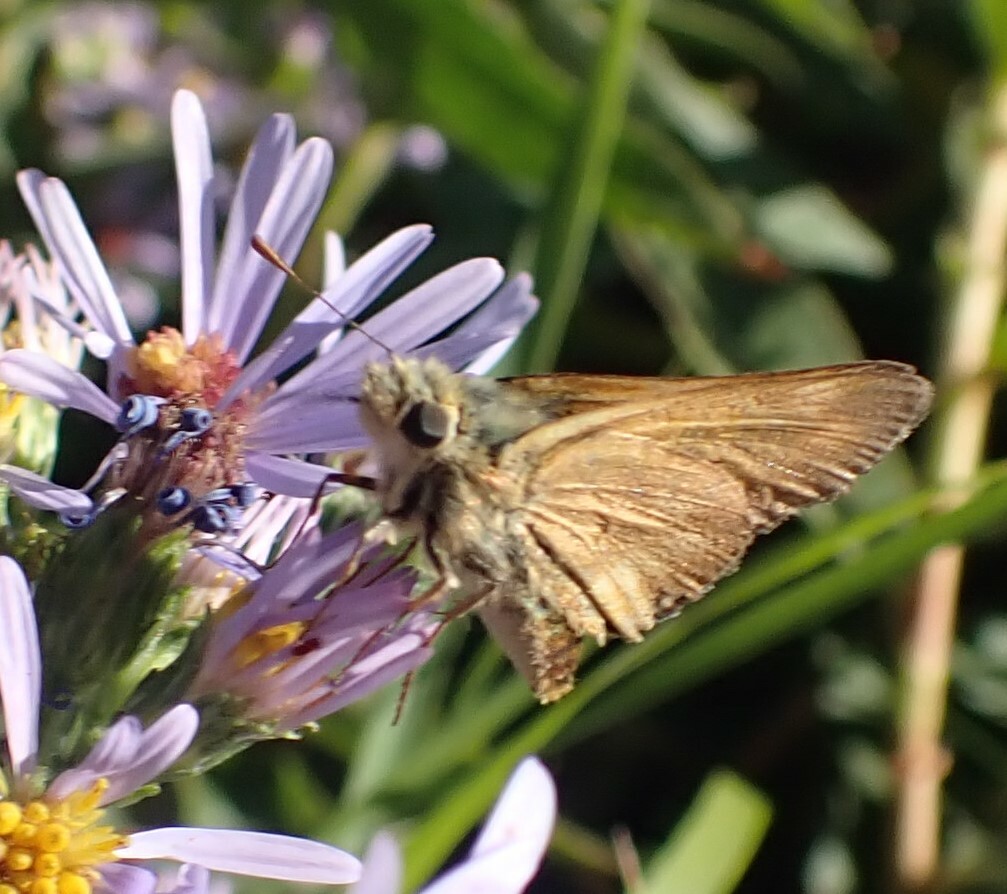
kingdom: Animalia
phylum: Arthropoda
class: Insecta
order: Lepidoptera
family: Hesperiidae
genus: Ochlodes
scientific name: Ochlodes sylvanoides
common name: Woodland skipper
